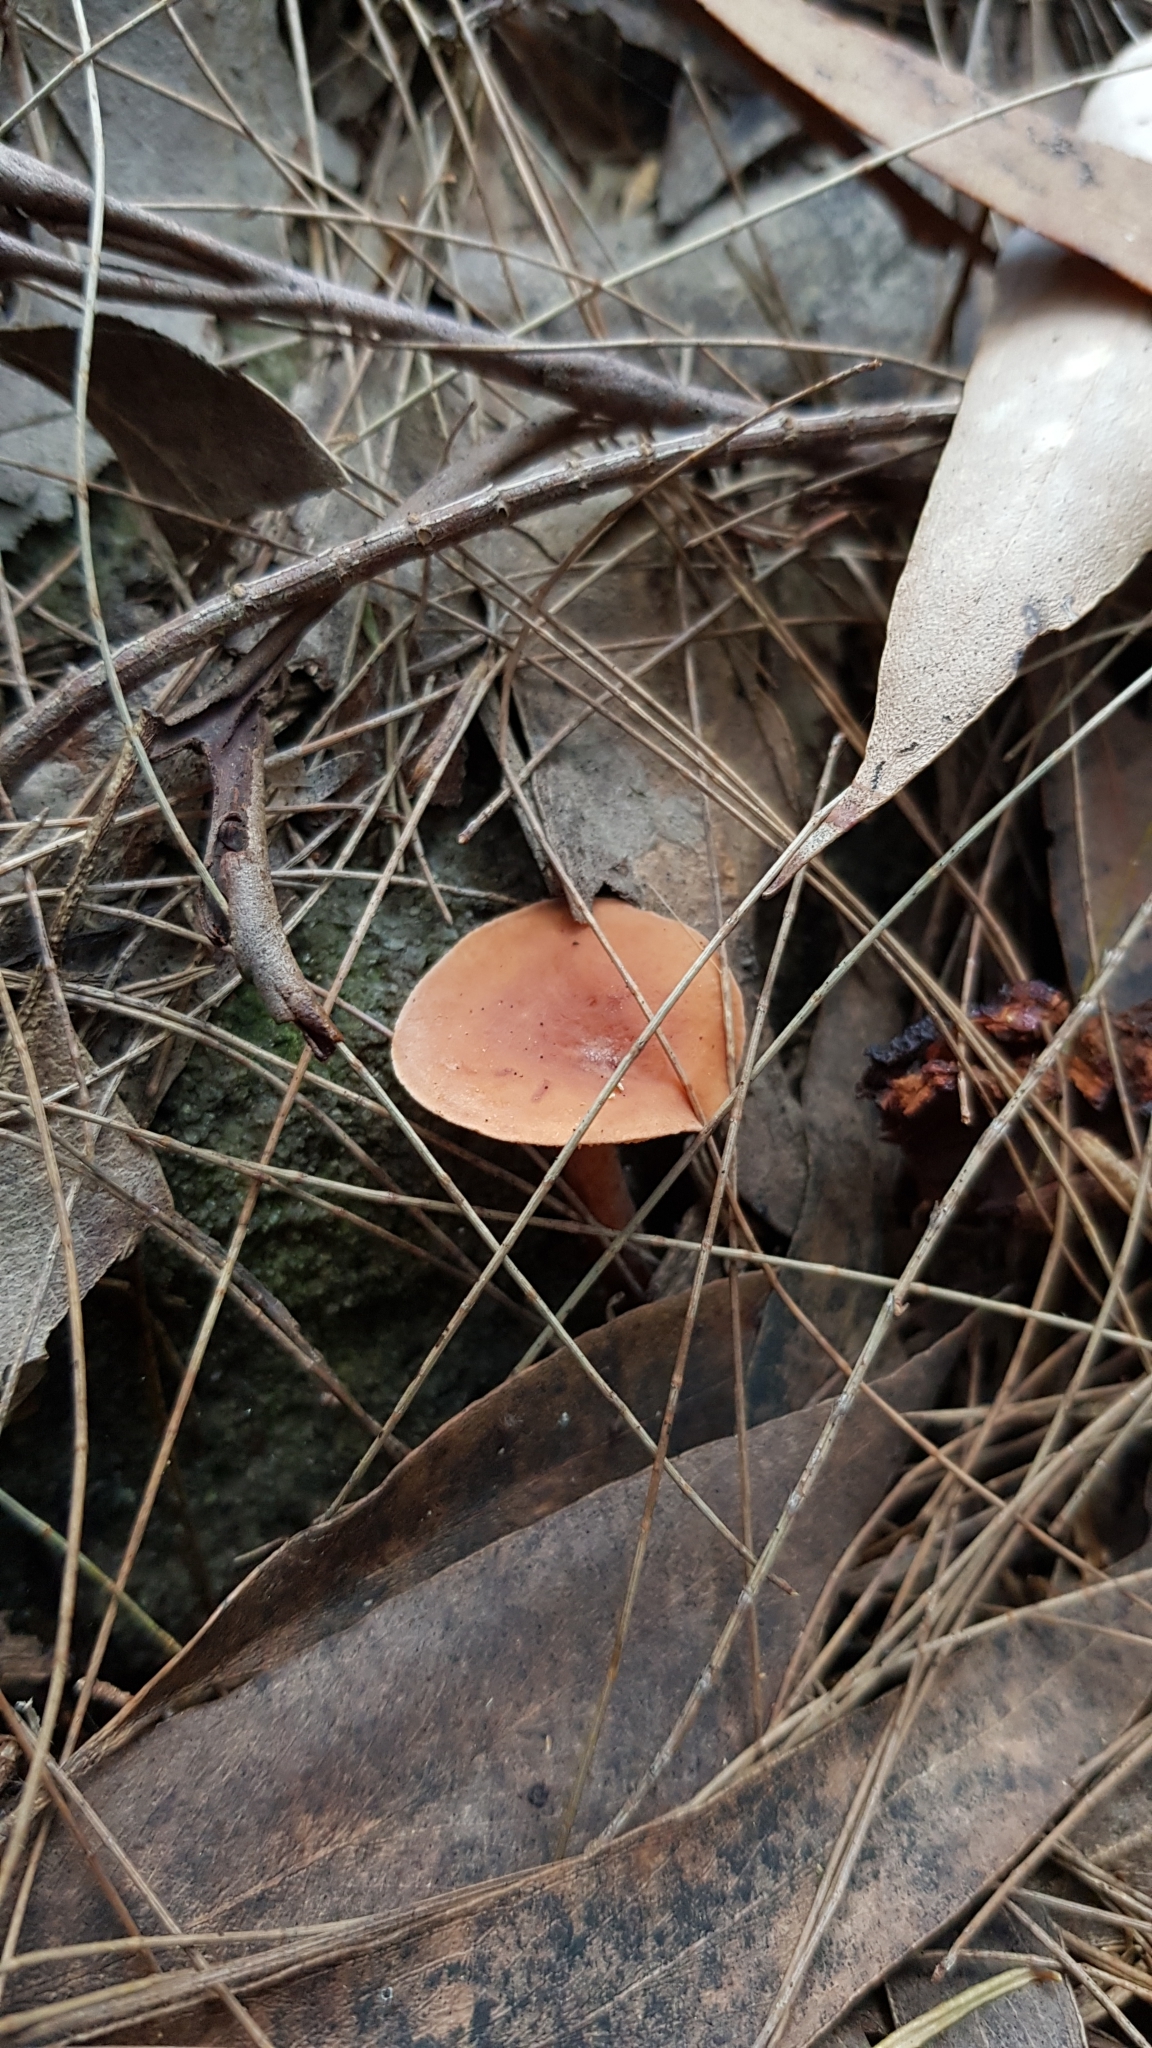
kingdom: Fungi
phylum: Basidiomycota
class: Agaricomycetes
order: Russulales
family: Russulaceae
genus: Lactarius
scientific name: Lactarius eucalypti
